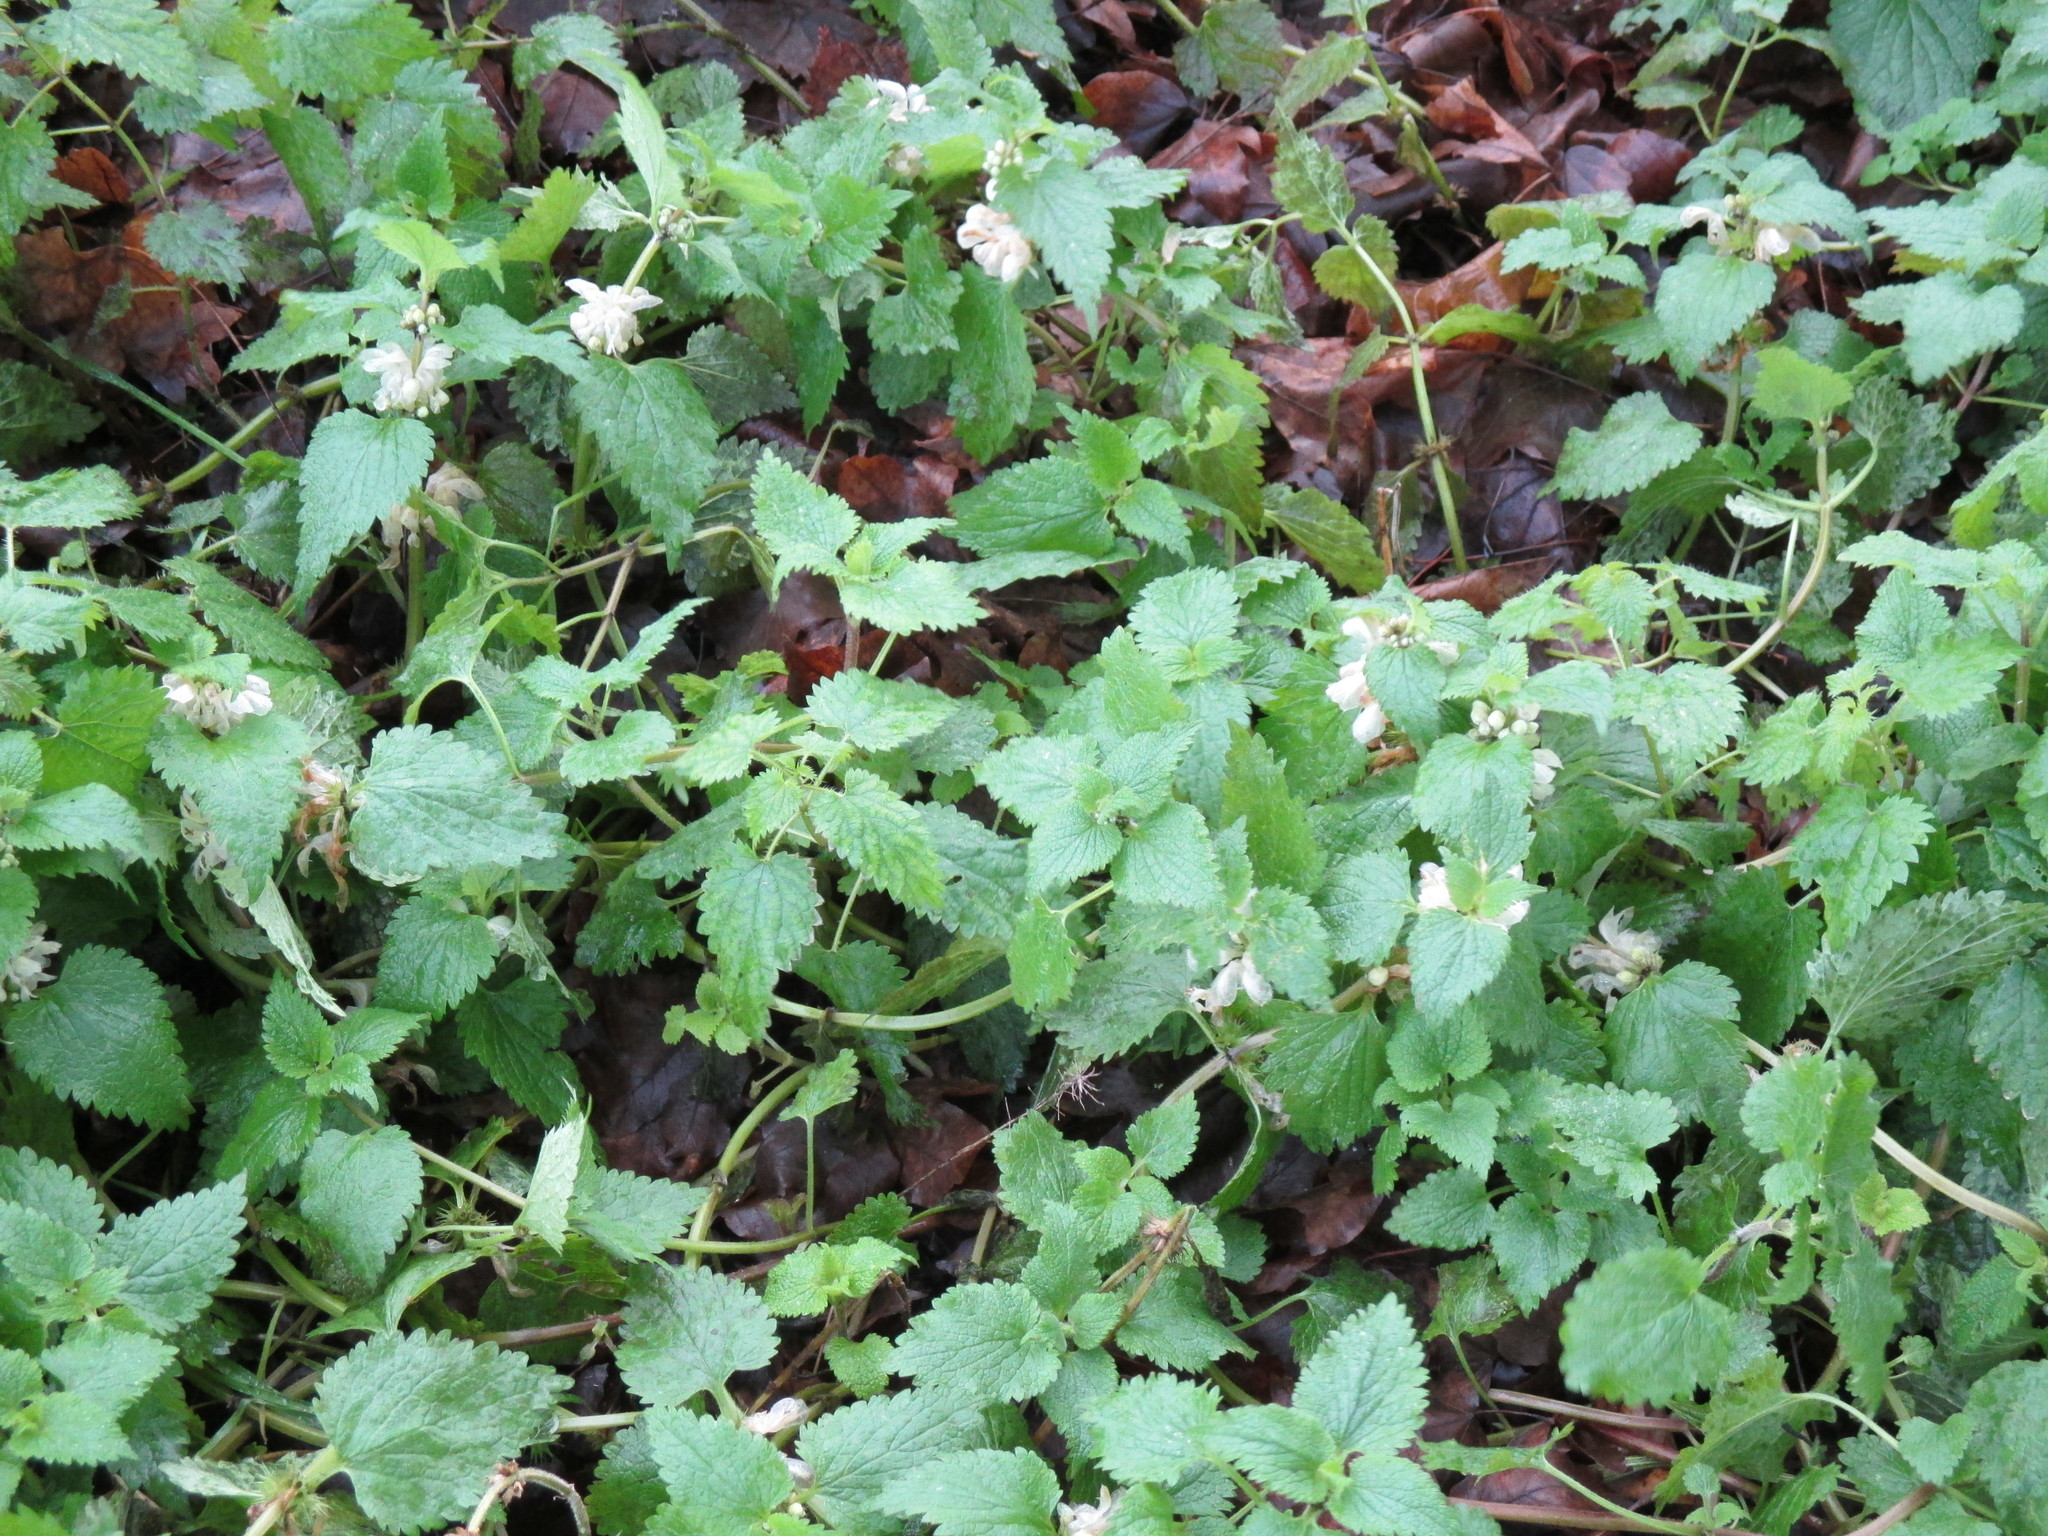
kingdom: Plantae
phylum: Tracheophyta
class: Magnoliopsida
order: Lamiales
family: Lamiaceae
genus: Lamium
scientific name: Lamium album
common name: White dead-nettle
